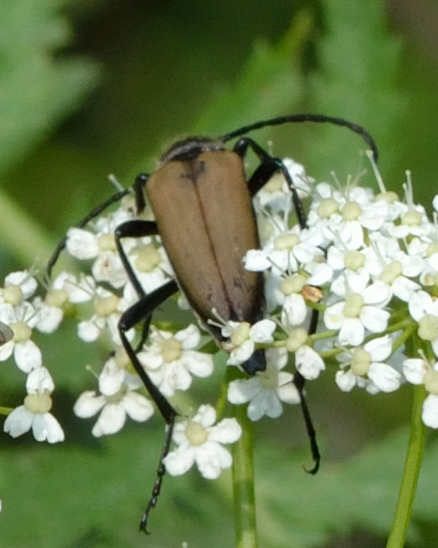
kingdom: Animalia
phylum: Arthropoda
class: Insecta
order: Coleoptera
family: Cerambycidae
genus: Lepturalia
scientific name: Lepturalia nigripes
